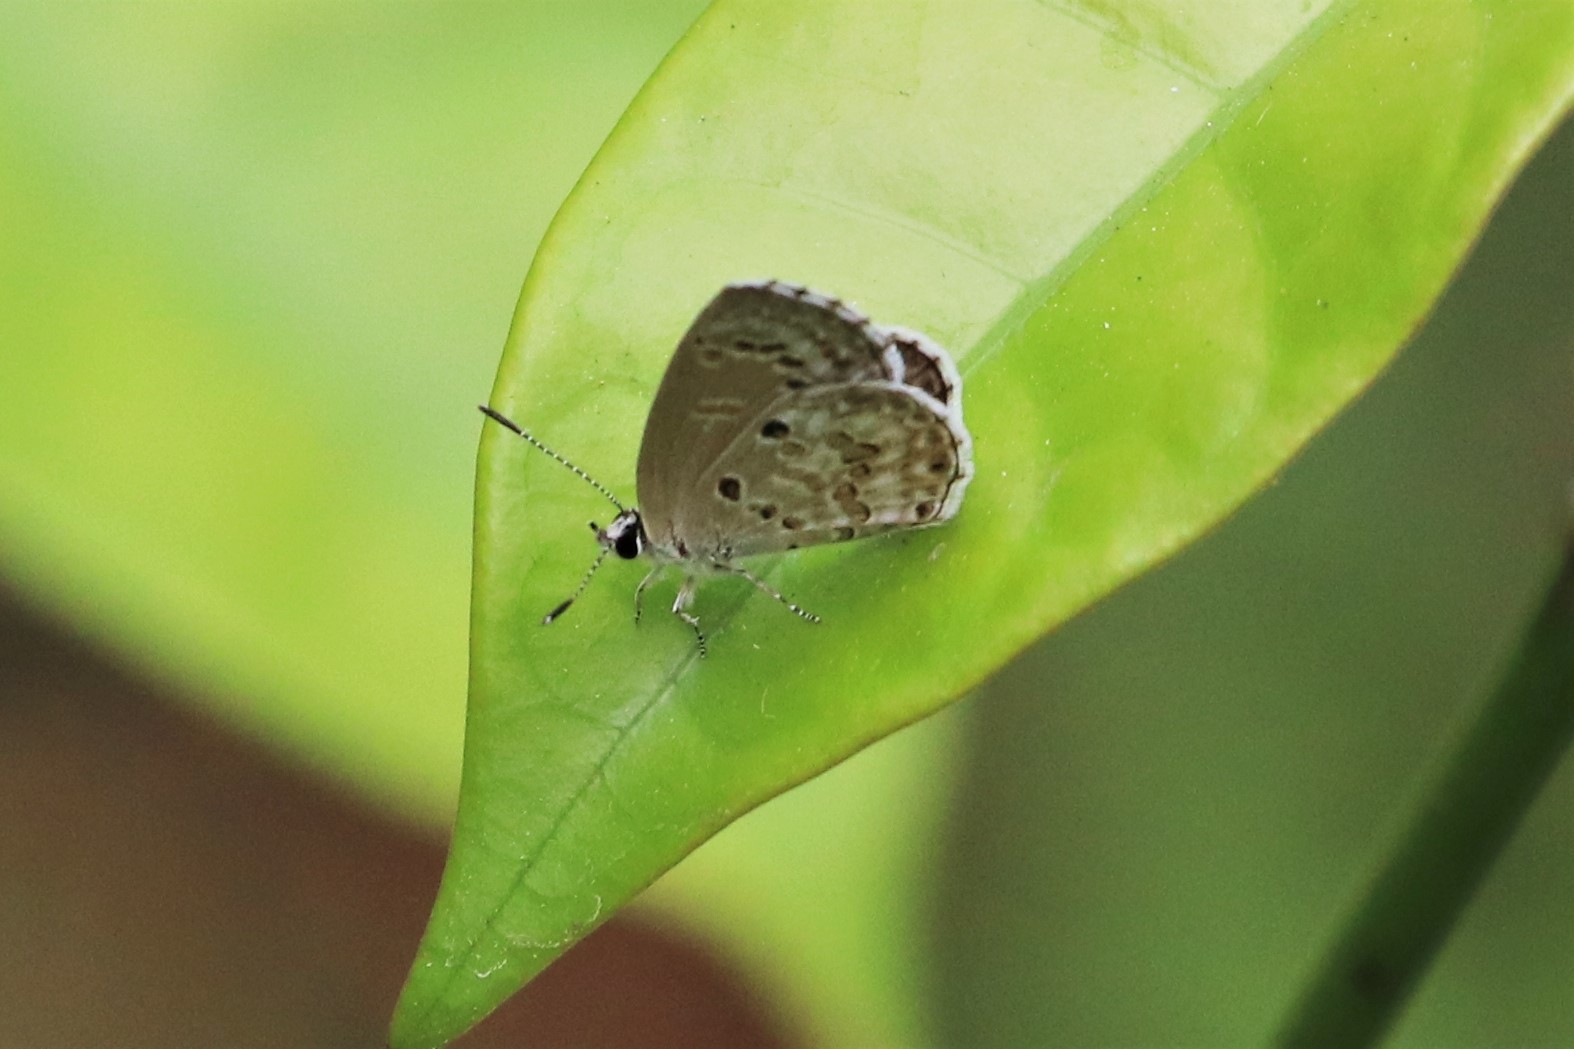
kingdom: Animalia
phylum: Arthropoda
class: Insecta
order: Lepidoptera
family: Lycaenidae
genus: Chilades
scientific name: Chilades laius
